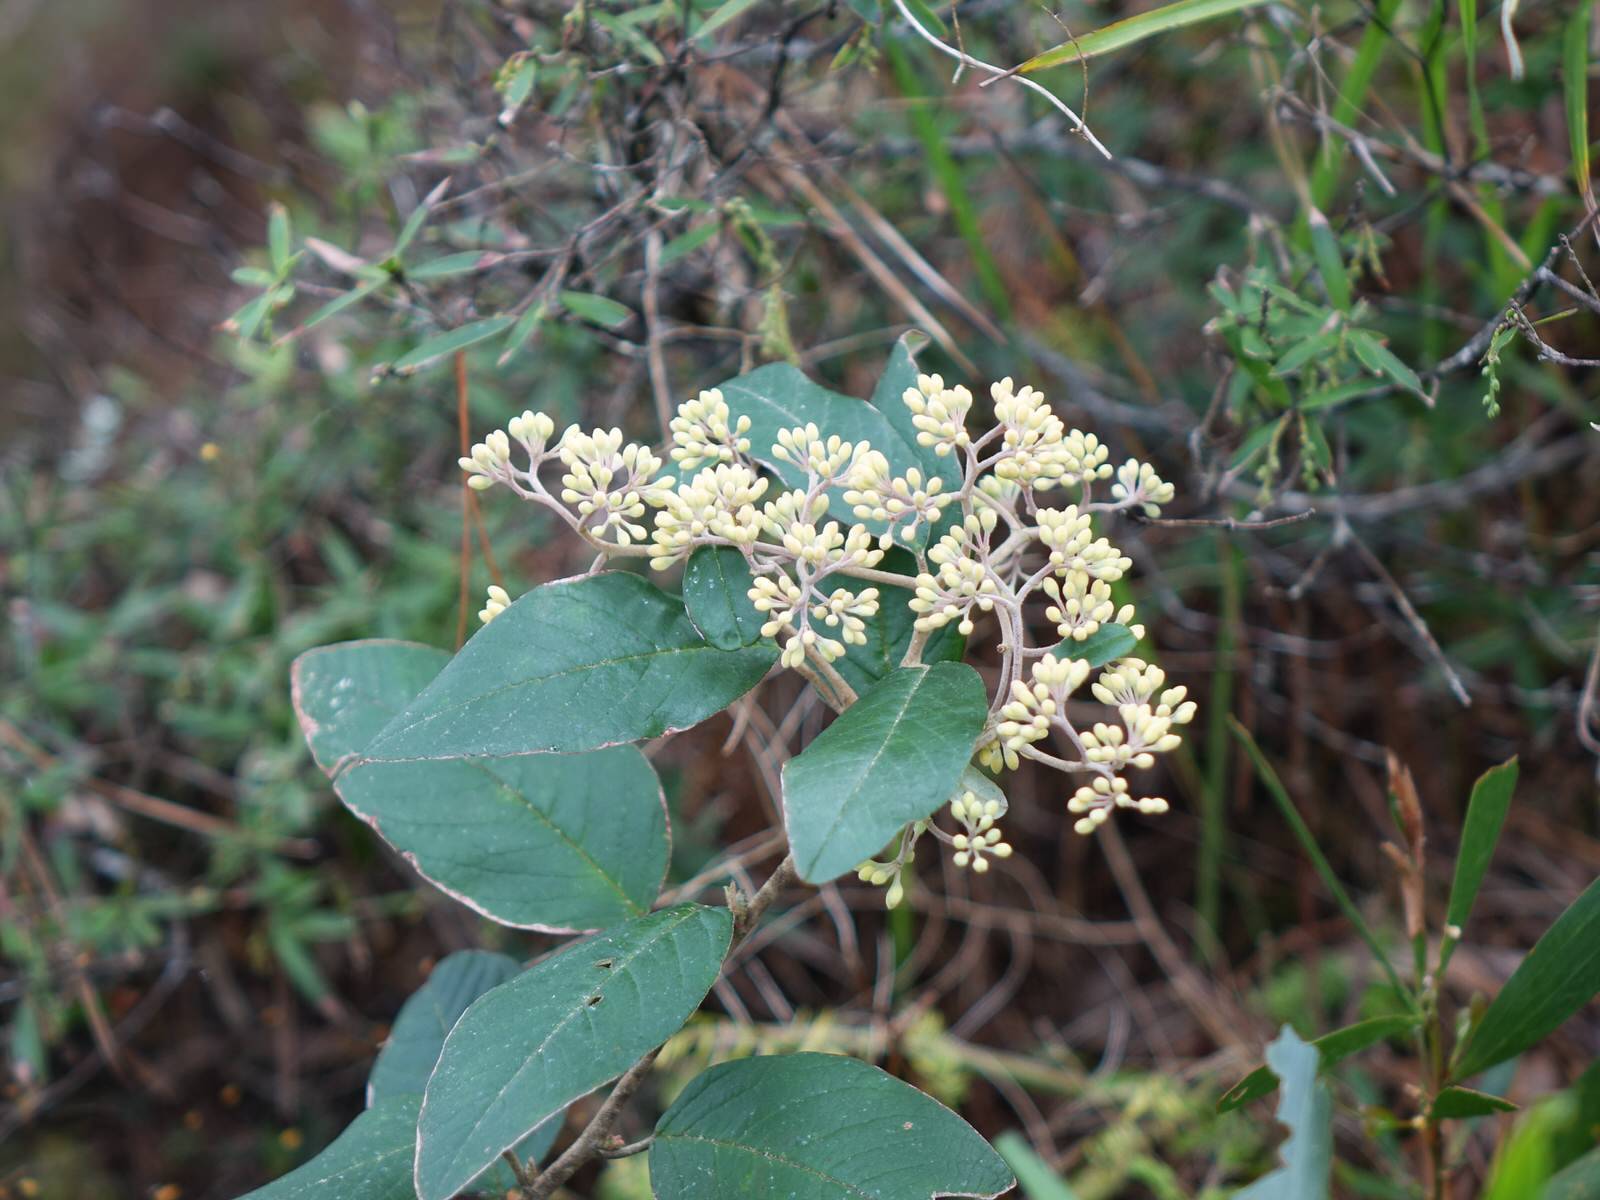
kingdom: Plantae
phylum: Tracheophyta
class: Magnoliopsida
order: Rosales
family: Rhamnaceae
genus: Pomaderris
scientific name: Pomaderris kumeraho
